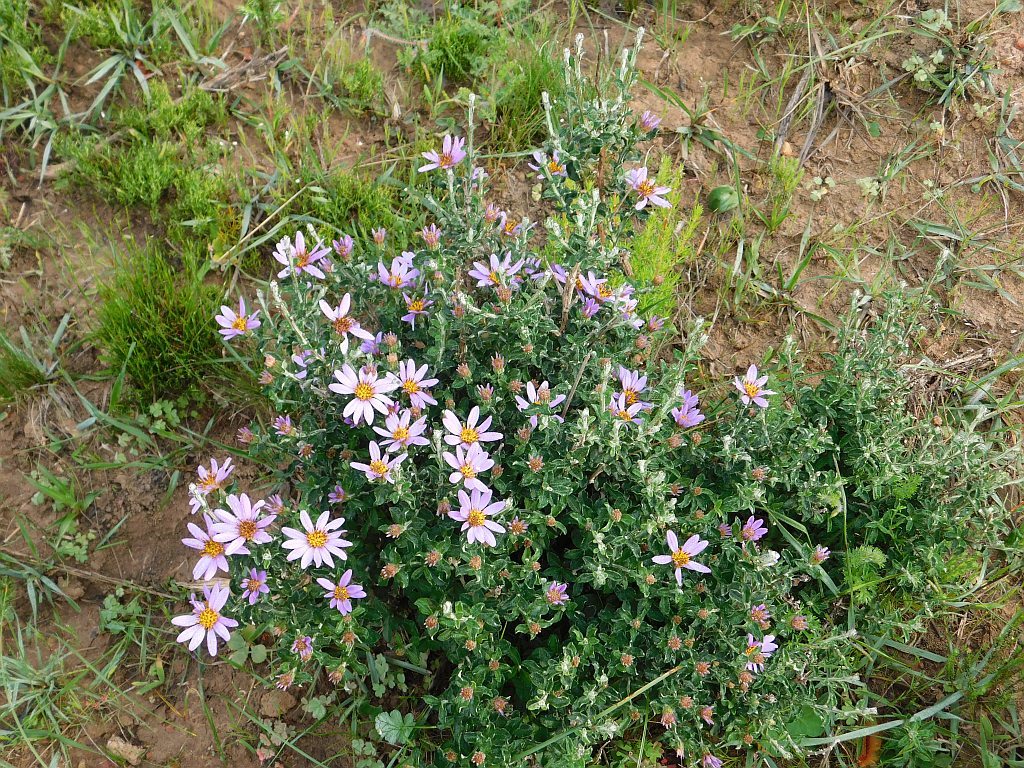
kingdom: Plantae
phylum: Tracheophyta
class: Magnoliopsida
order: Asterales
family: Asteraceae
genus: Printzia
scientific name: Printzia polifolia
